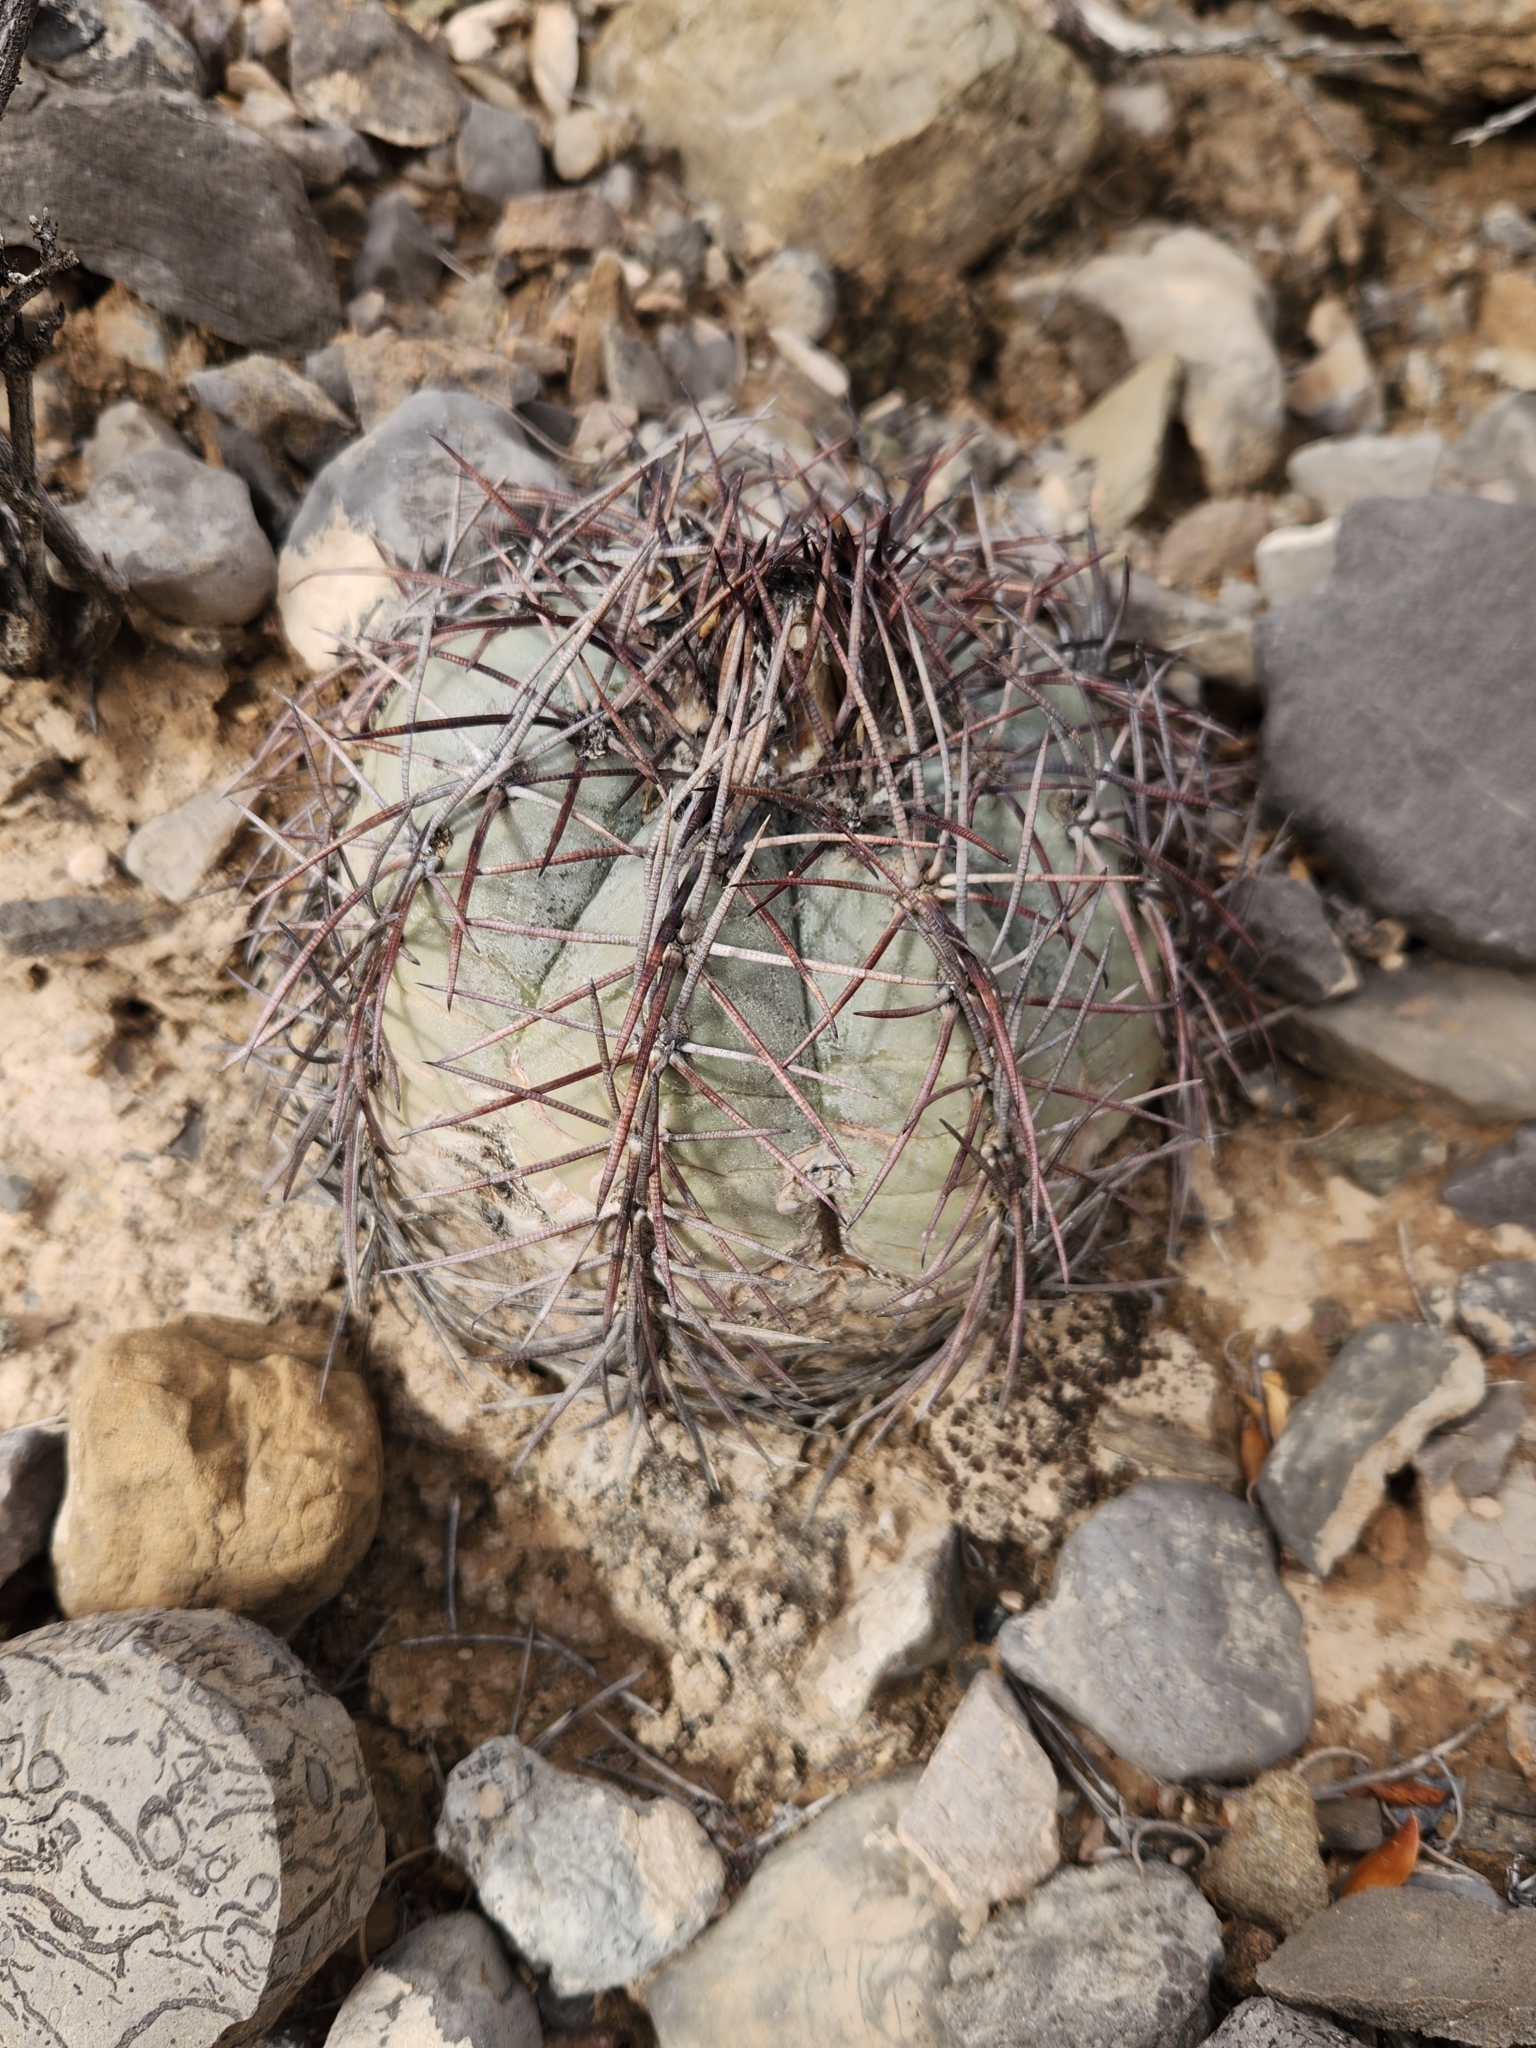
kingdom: Plantae
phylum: Tracheophyta
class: Magnoliopsida
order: Caryophyllales
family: Cactaceae
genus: Echinocactus
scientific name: Echinocactus horizonthalonius
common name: Devilshead
